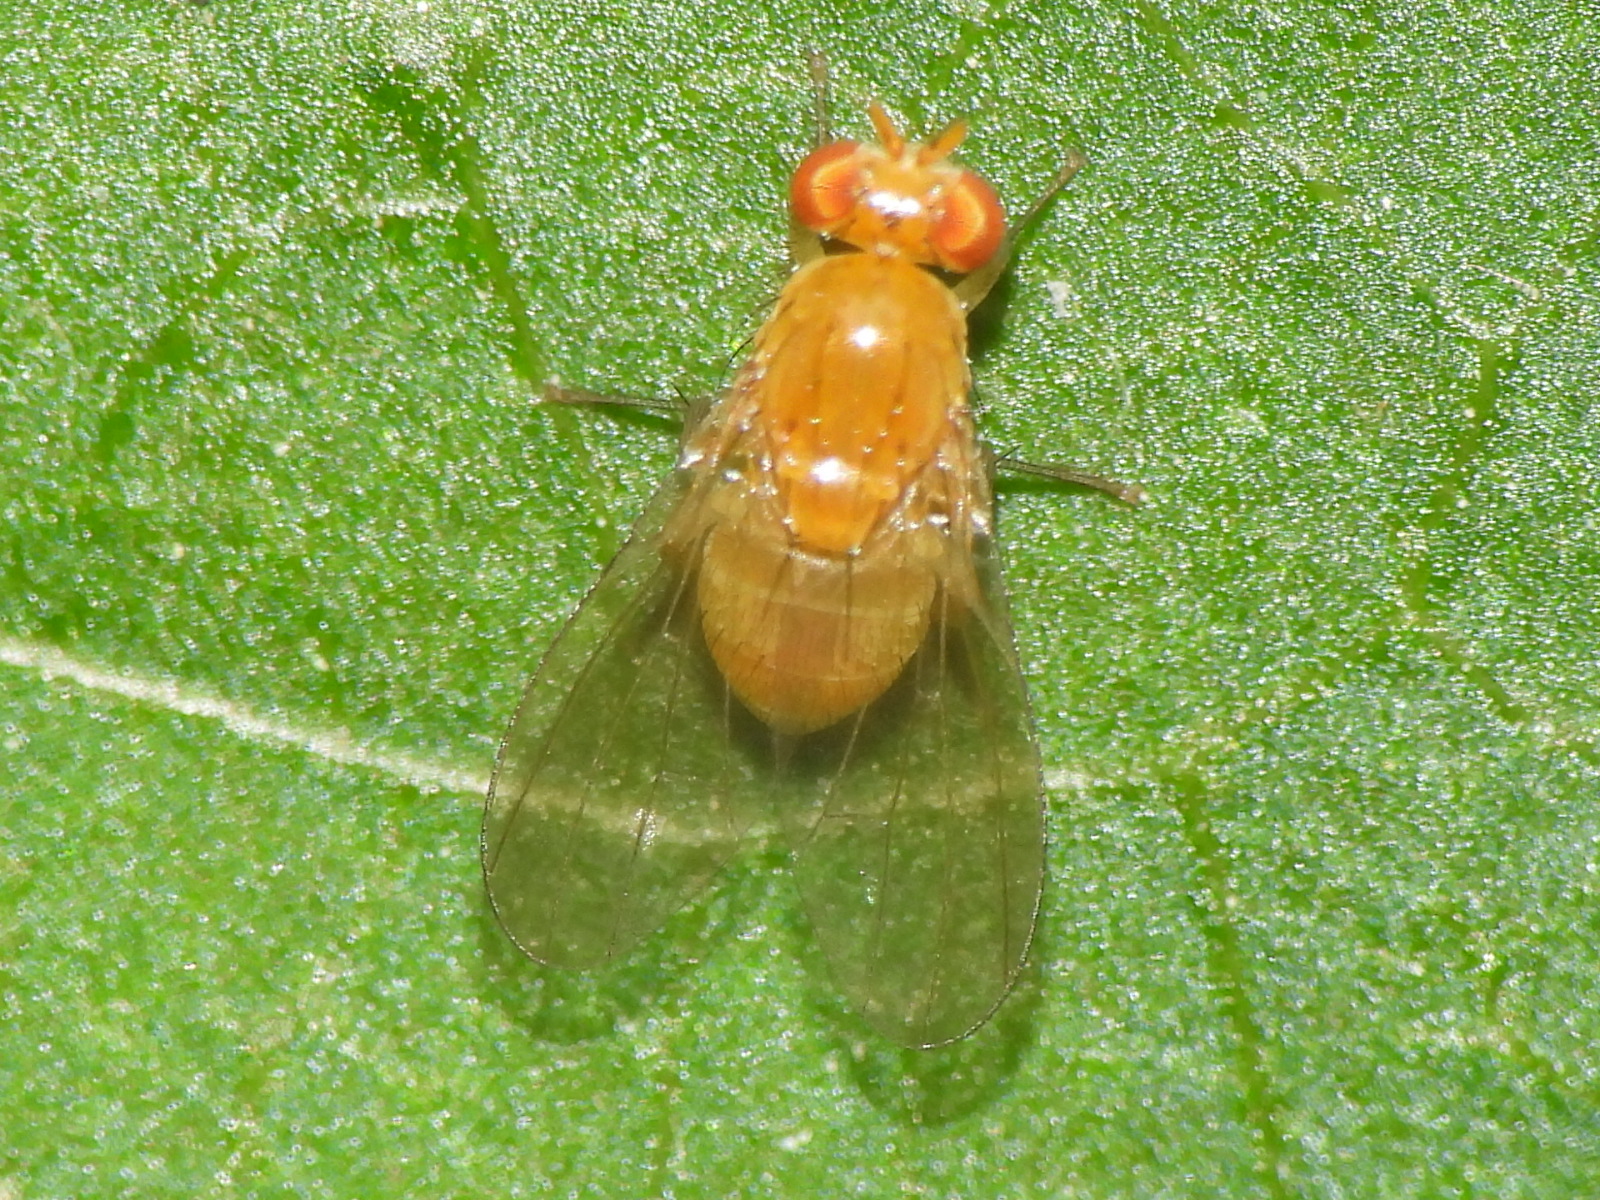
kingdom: Animalia
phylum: Arthropoda
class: Insecta
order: Diptera
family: Lauxaniidae
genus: Neogriphoneura
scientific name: Neogriphoneura sordida
